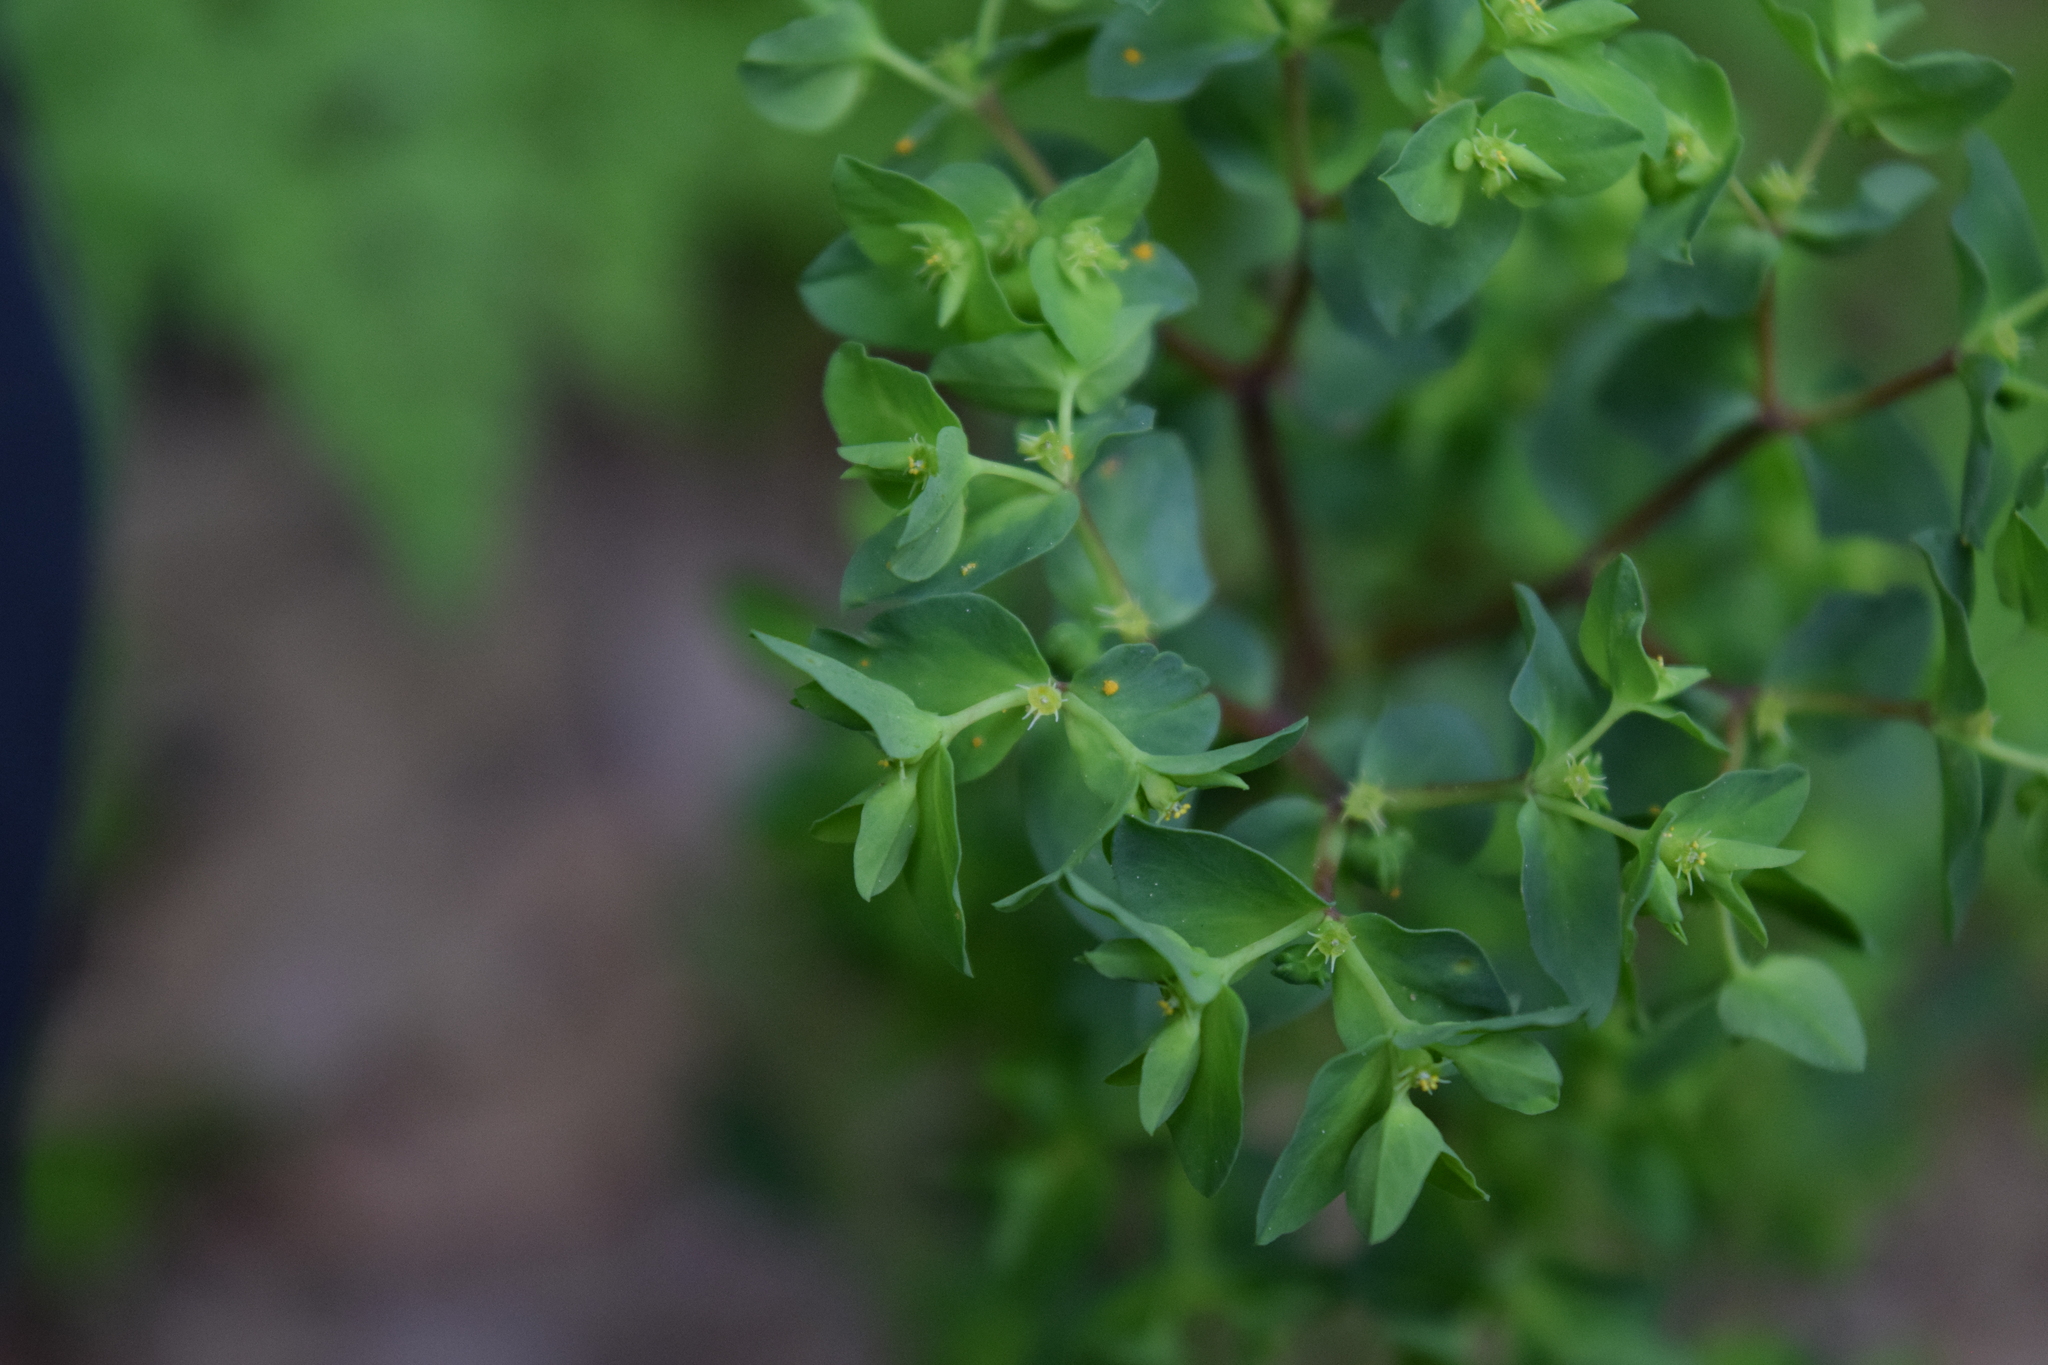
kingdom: Plantae
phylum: Tracheophyta
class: Magnoliopsida
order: Malpighiales
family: Euphorbiaceae
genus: Euphorbia
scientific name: Euphorbia peplus
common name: Petty spurge
